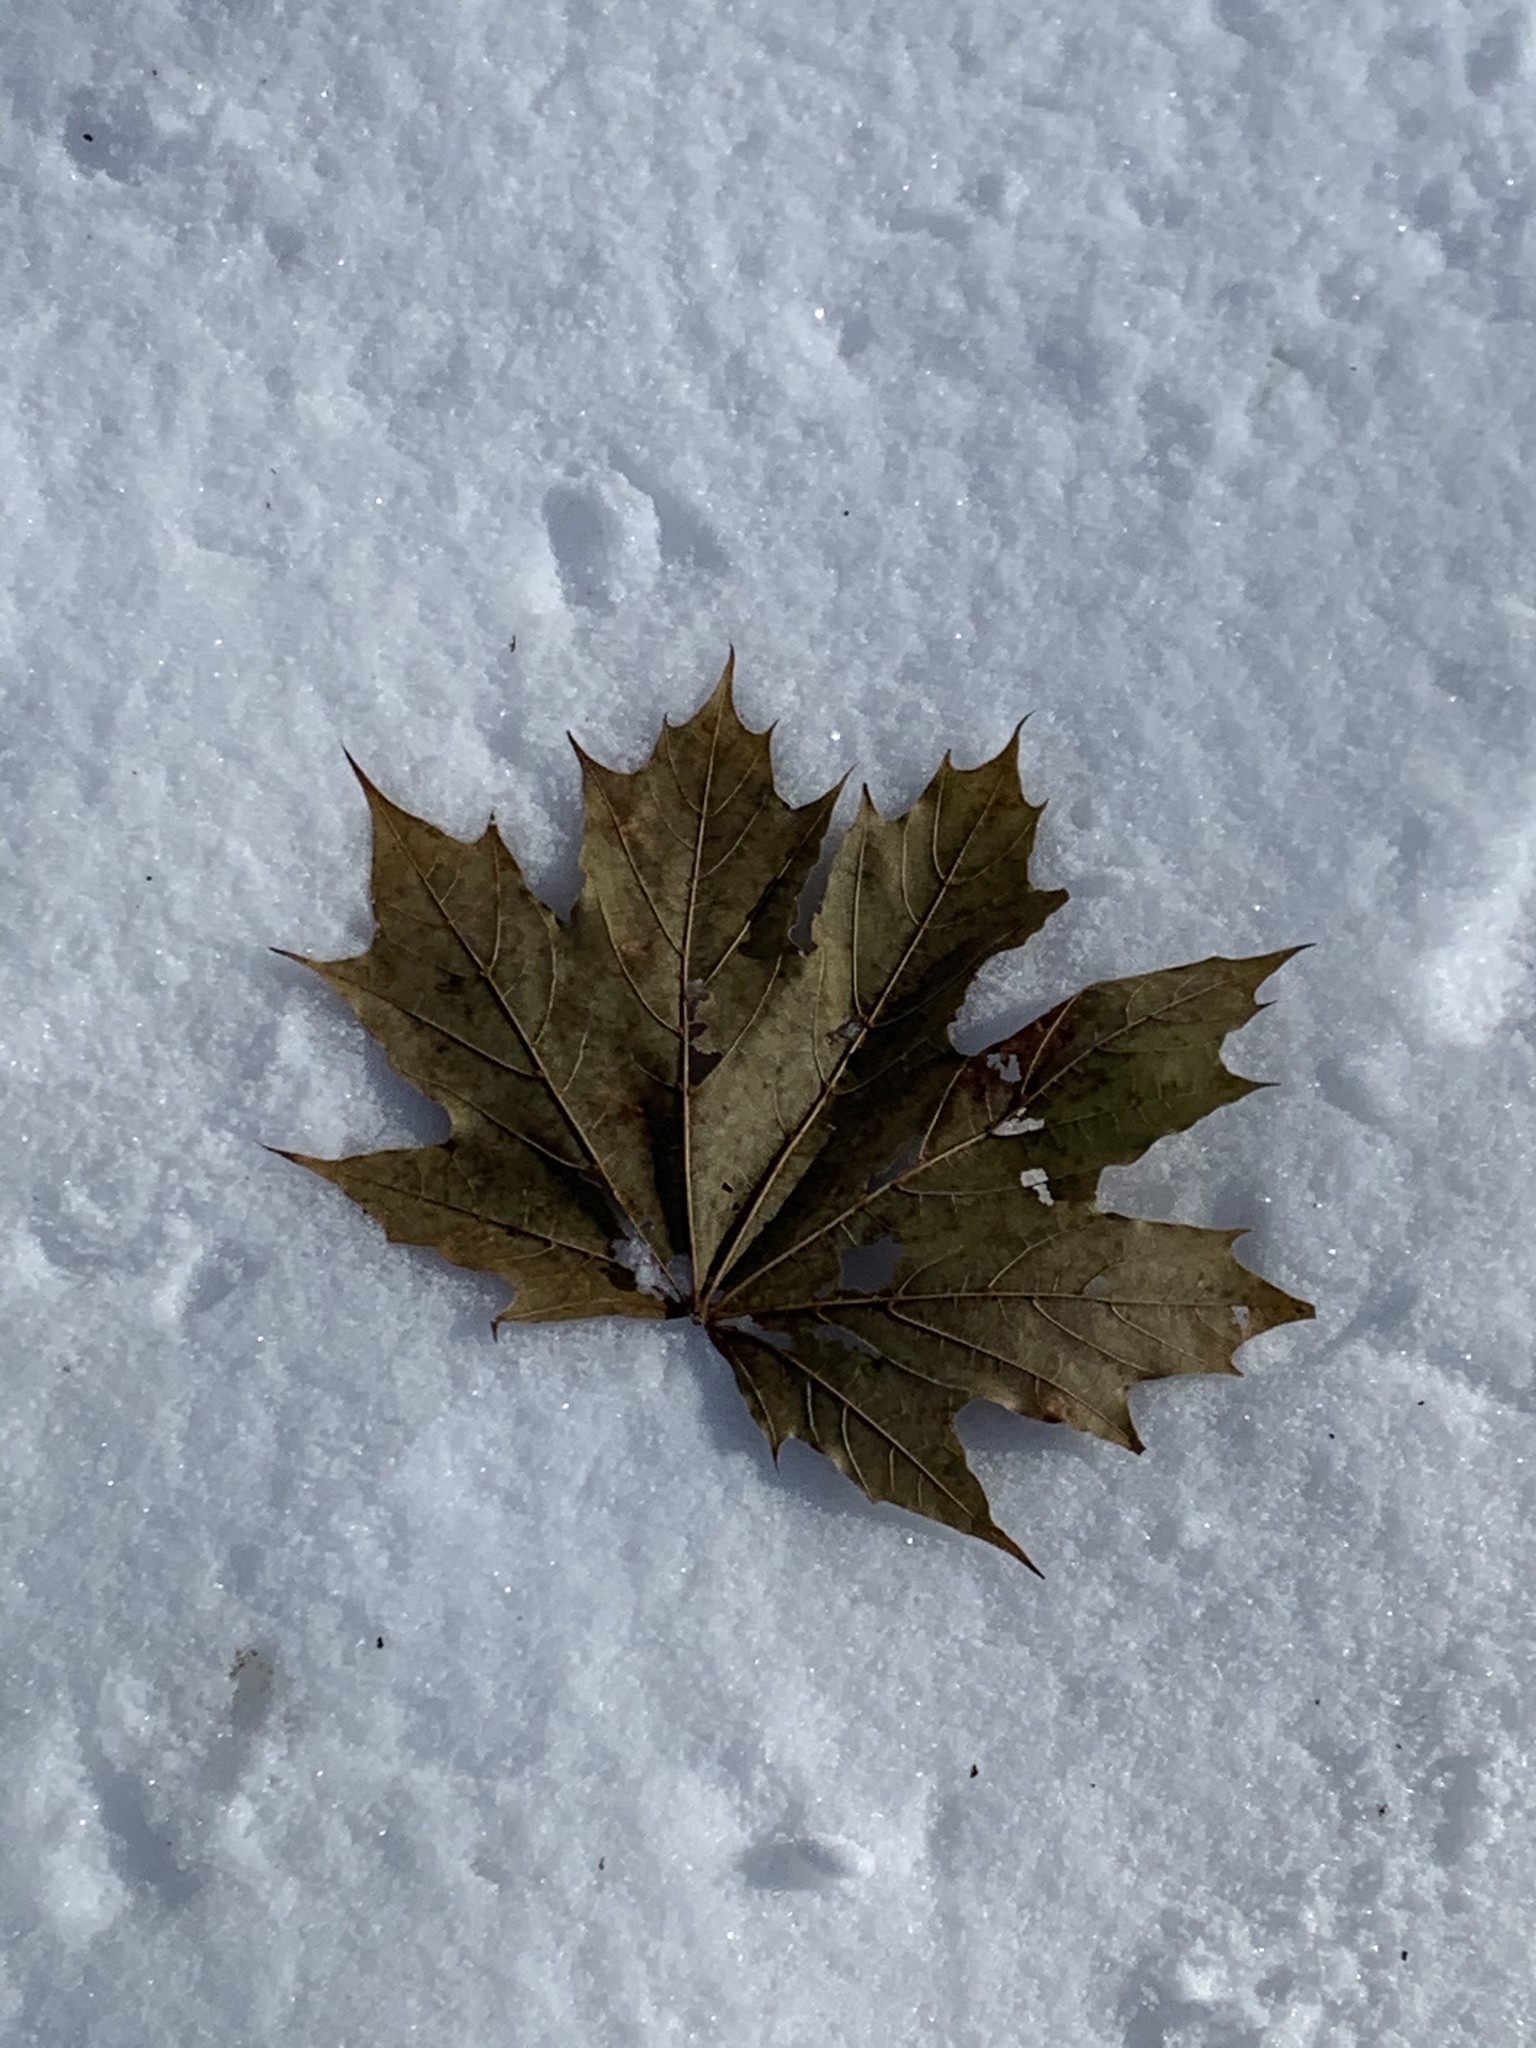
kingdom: Plantae
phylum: Tracheophyta
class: Magnoliopsida
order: Sapindales
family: Sapindaceae
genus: Acer
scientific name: Acer platanoides
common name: Norway maple
